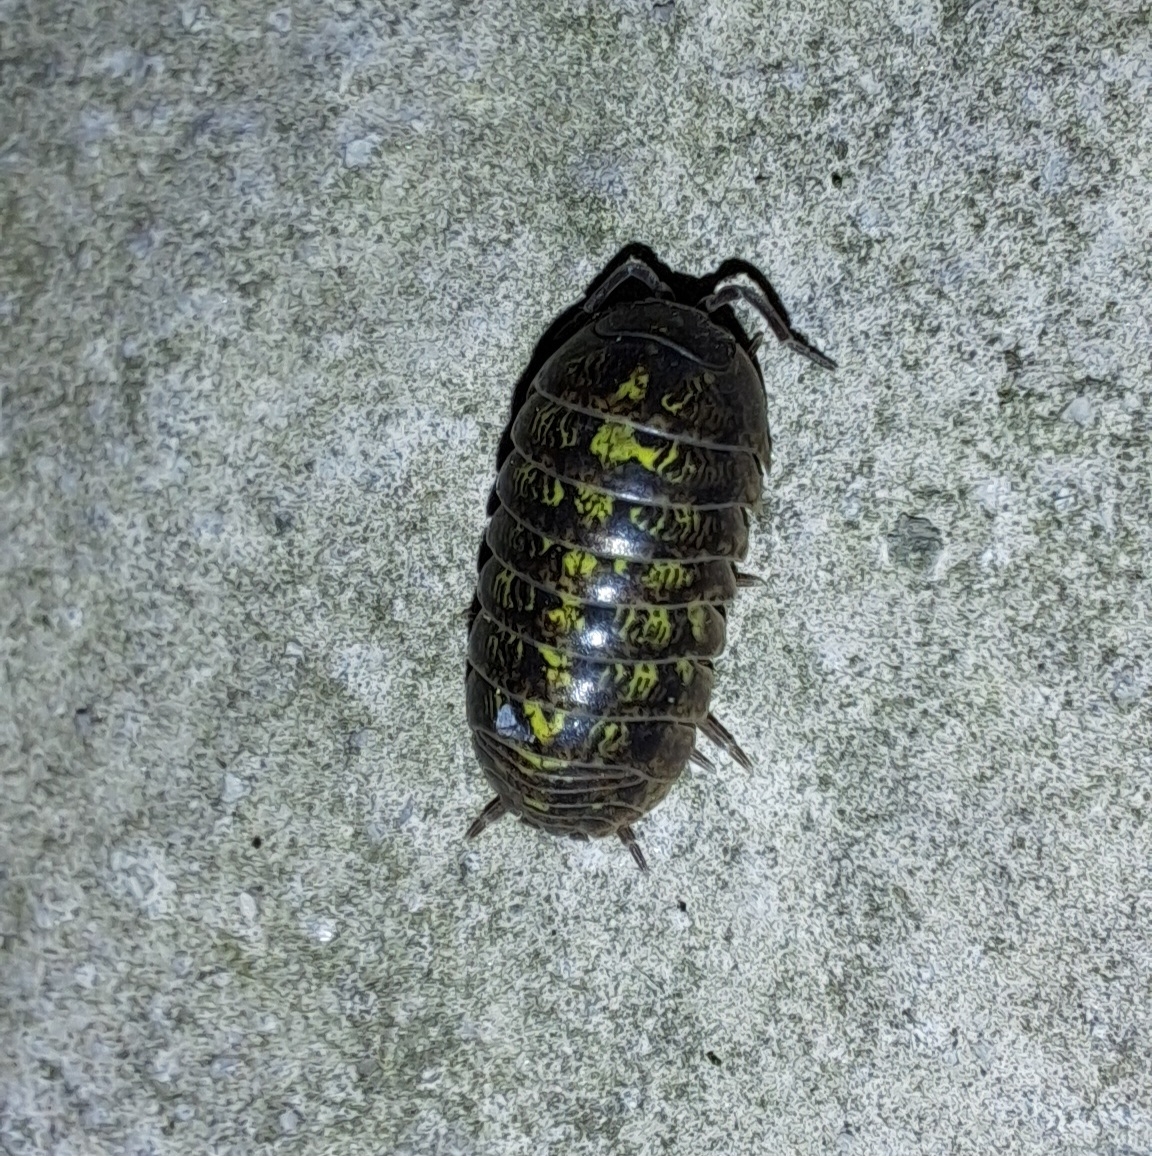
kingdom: Animalia
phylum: Arthropoda
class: Malacostraca
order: Isopoda
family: Armadillidiidae
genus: Armadillidium
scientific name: Armadillidium vulgare
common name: Common pill woodlouse
